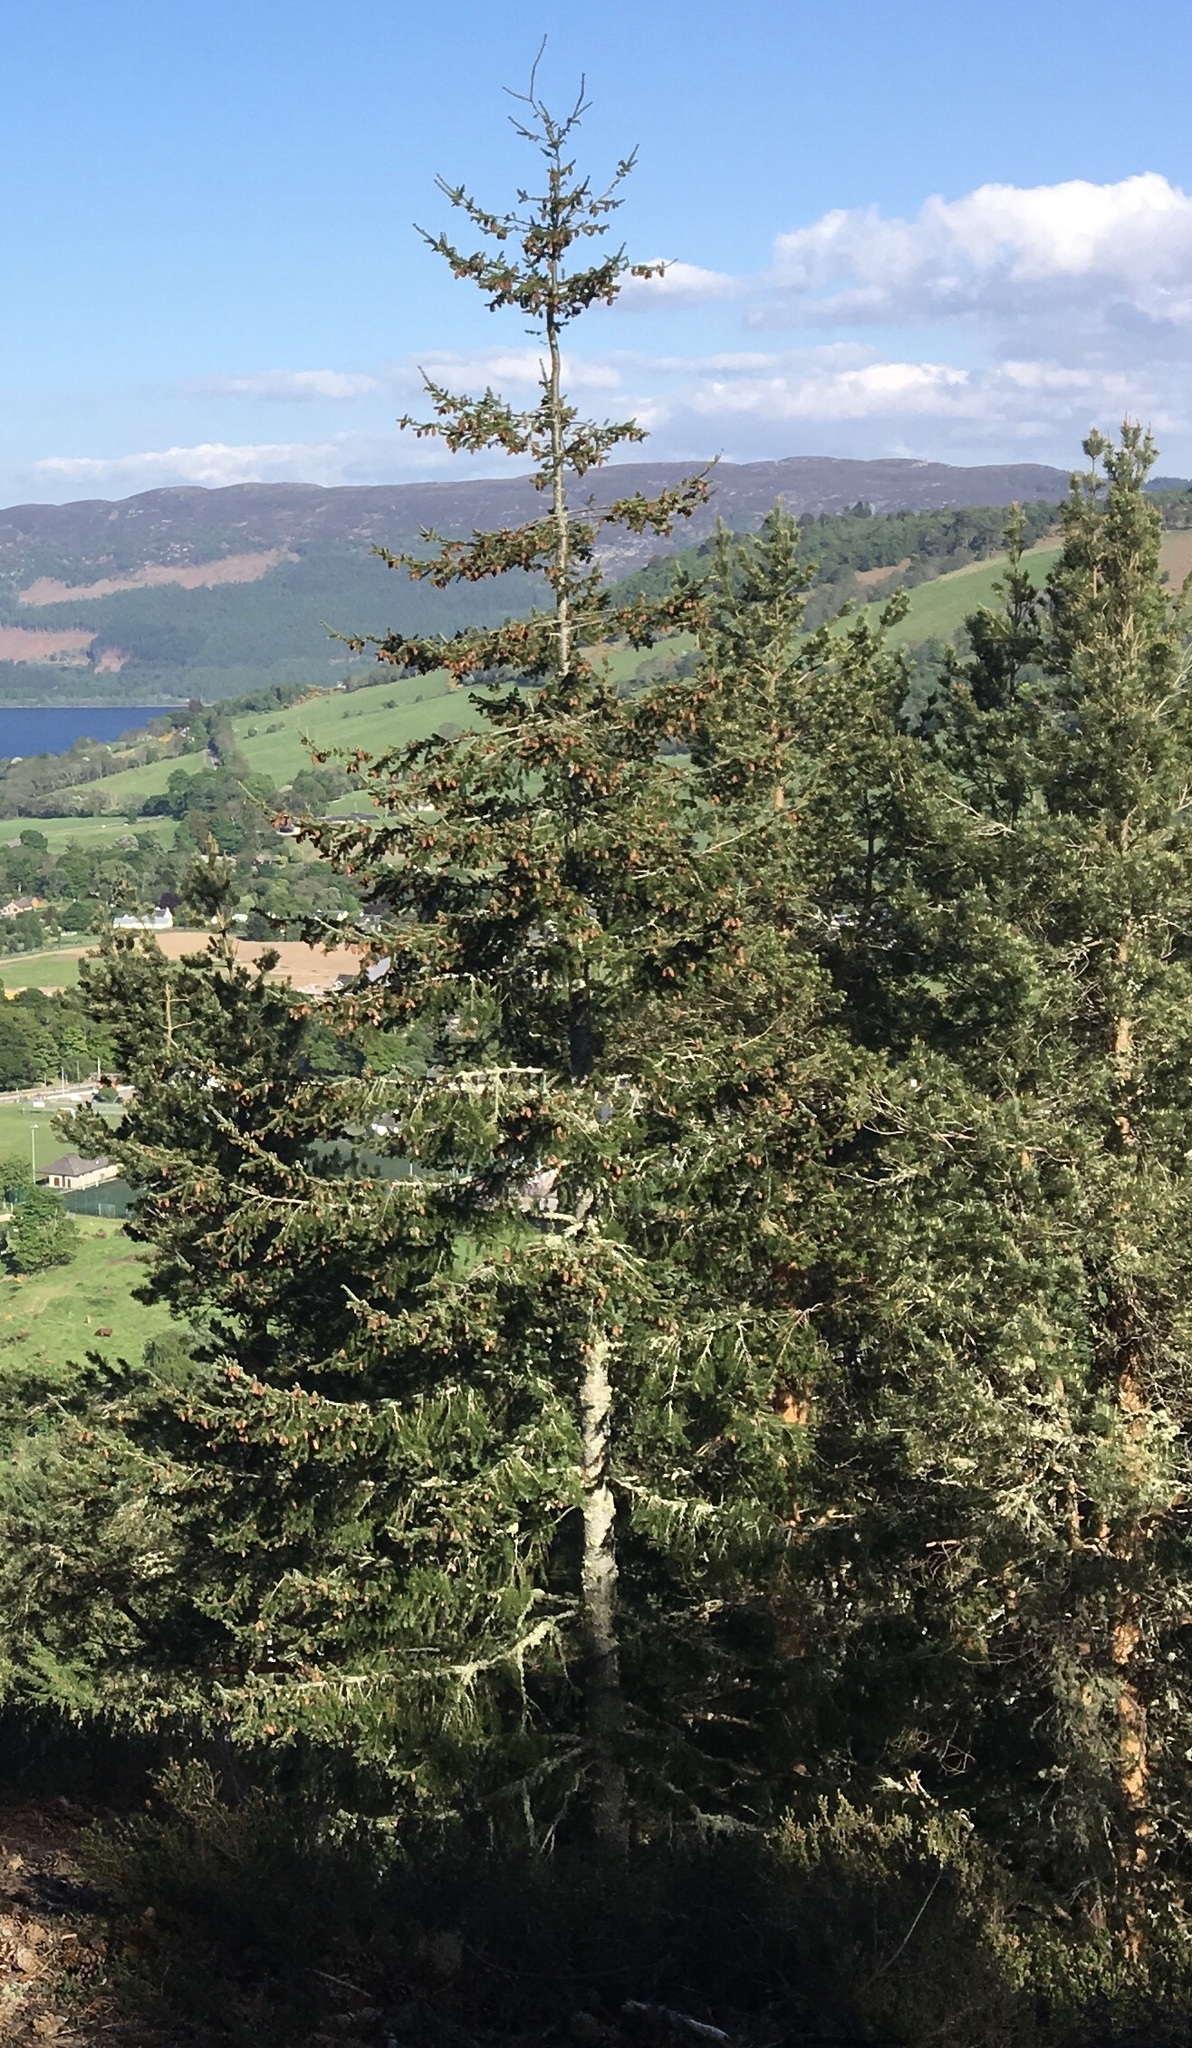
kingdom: Plantae
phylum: Tracheophyta
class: Pinopsida
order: Pinales
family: Pinaceae
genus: Picea
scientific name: Picea abies
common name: Norway spruce
